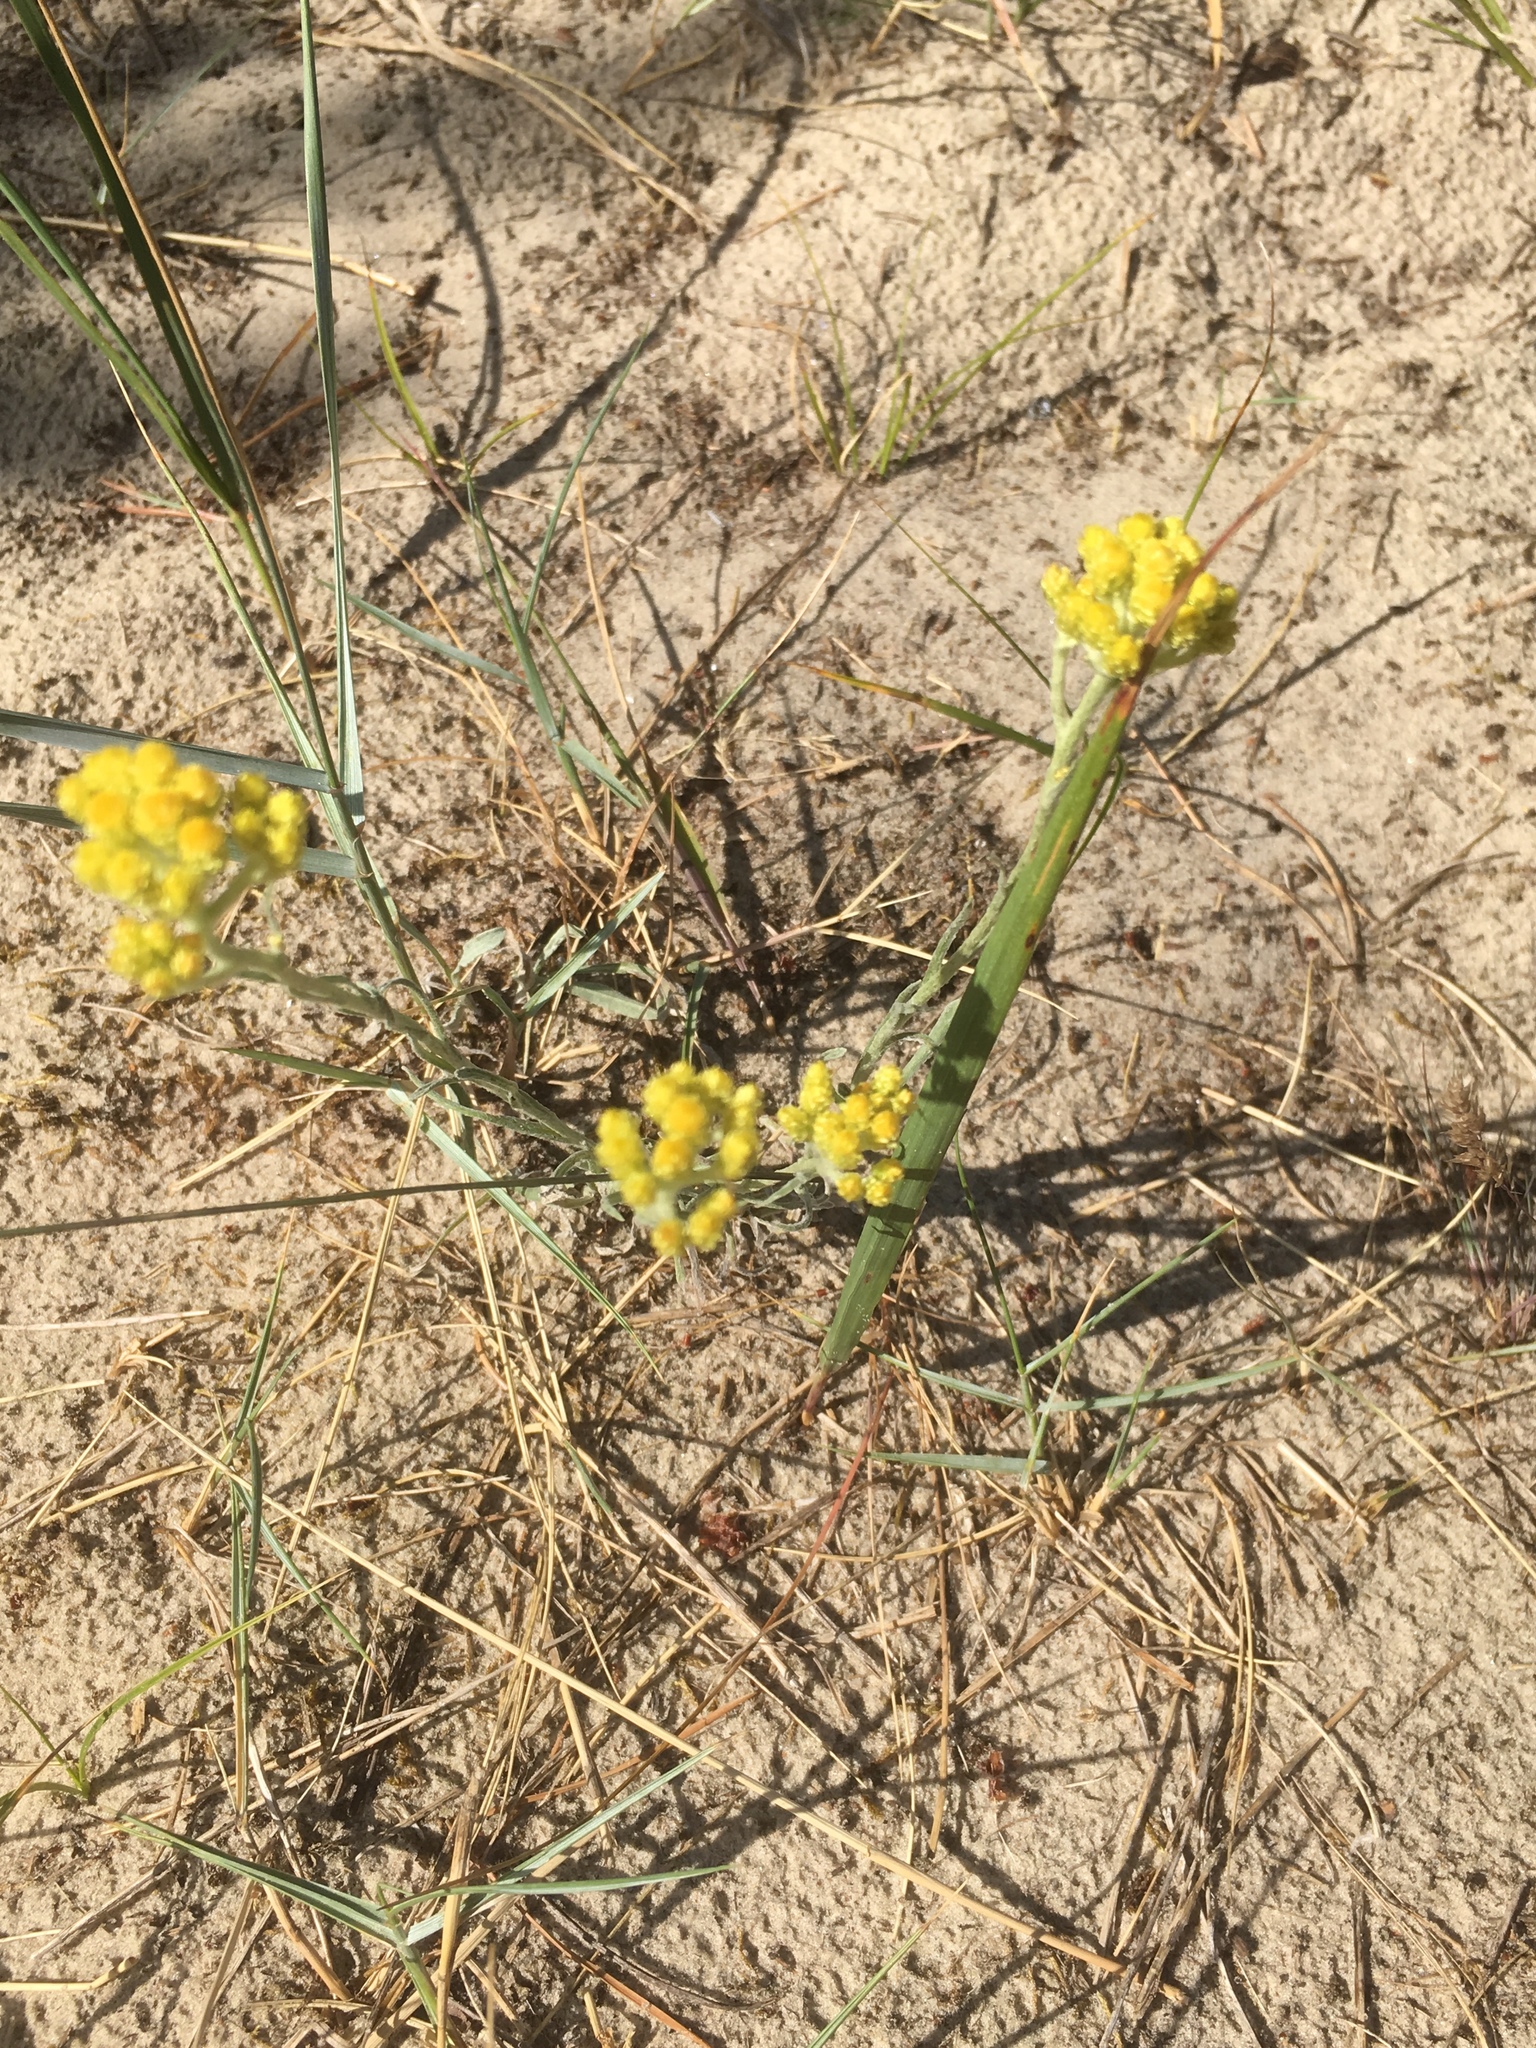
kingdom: Plantae
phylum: Tracheophyta
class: Magnoliopsida
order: Asterales
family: Asteraceae
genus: Helichrysum
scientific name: Helichrysum arenarium
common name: Strawflower
